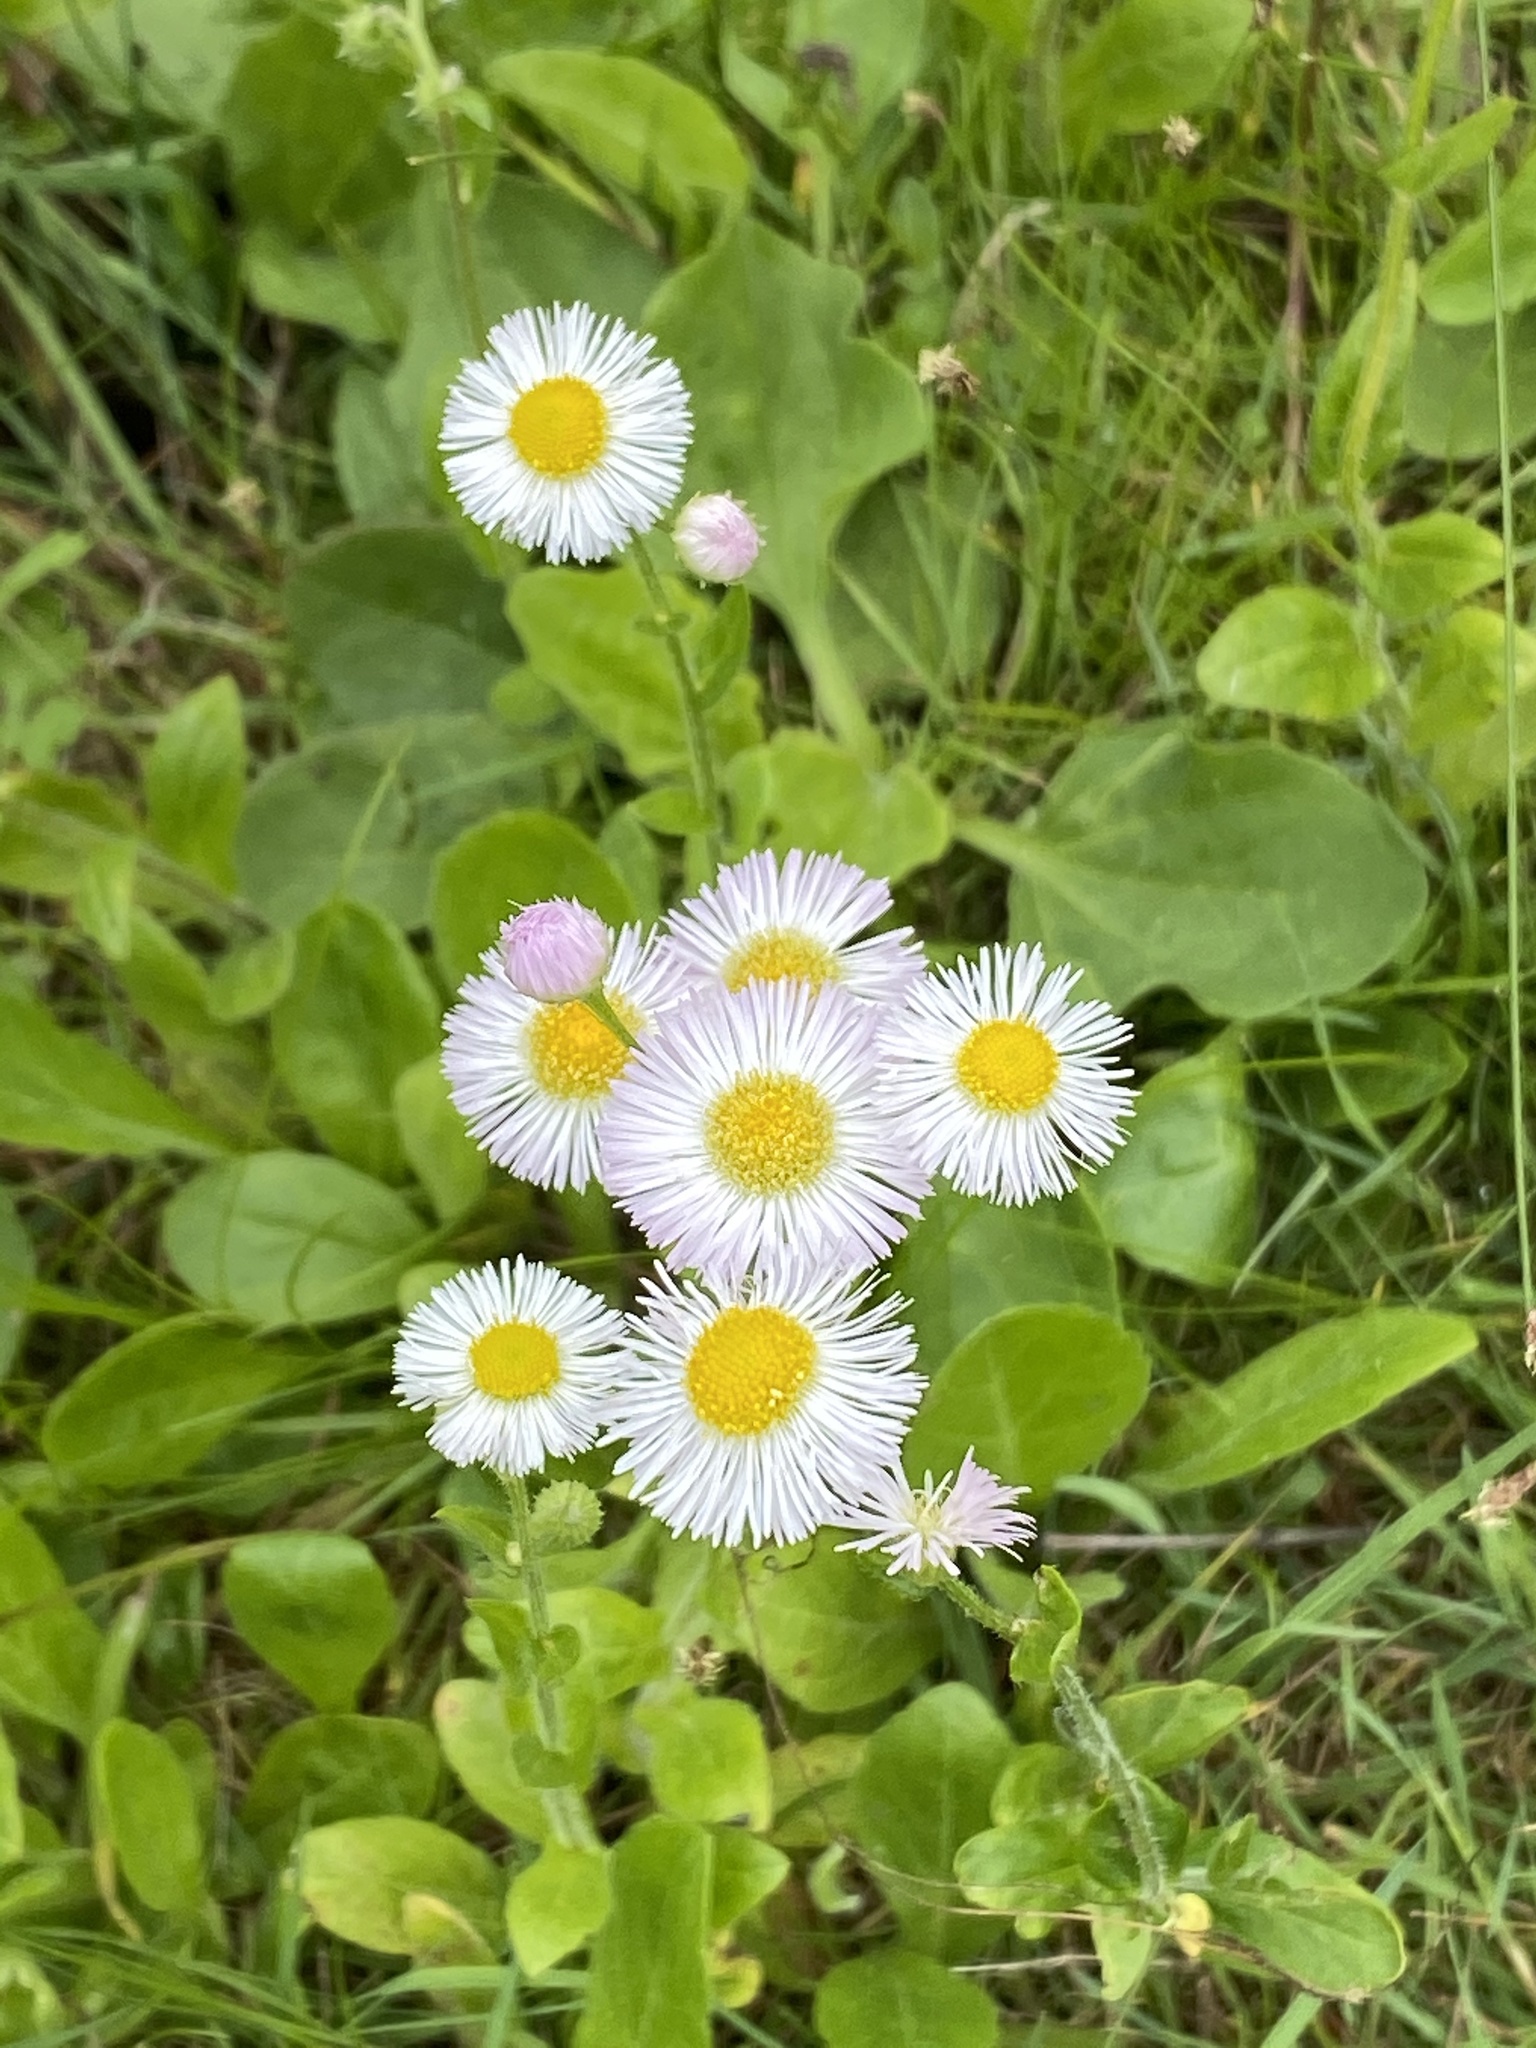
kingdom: Plantae
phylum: Tracheophyta
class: Magnoliopsida
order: Asterales
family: Asteraceae
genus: Erigeron
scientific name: Erigeron pulchellus
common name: Hairy fleabane
